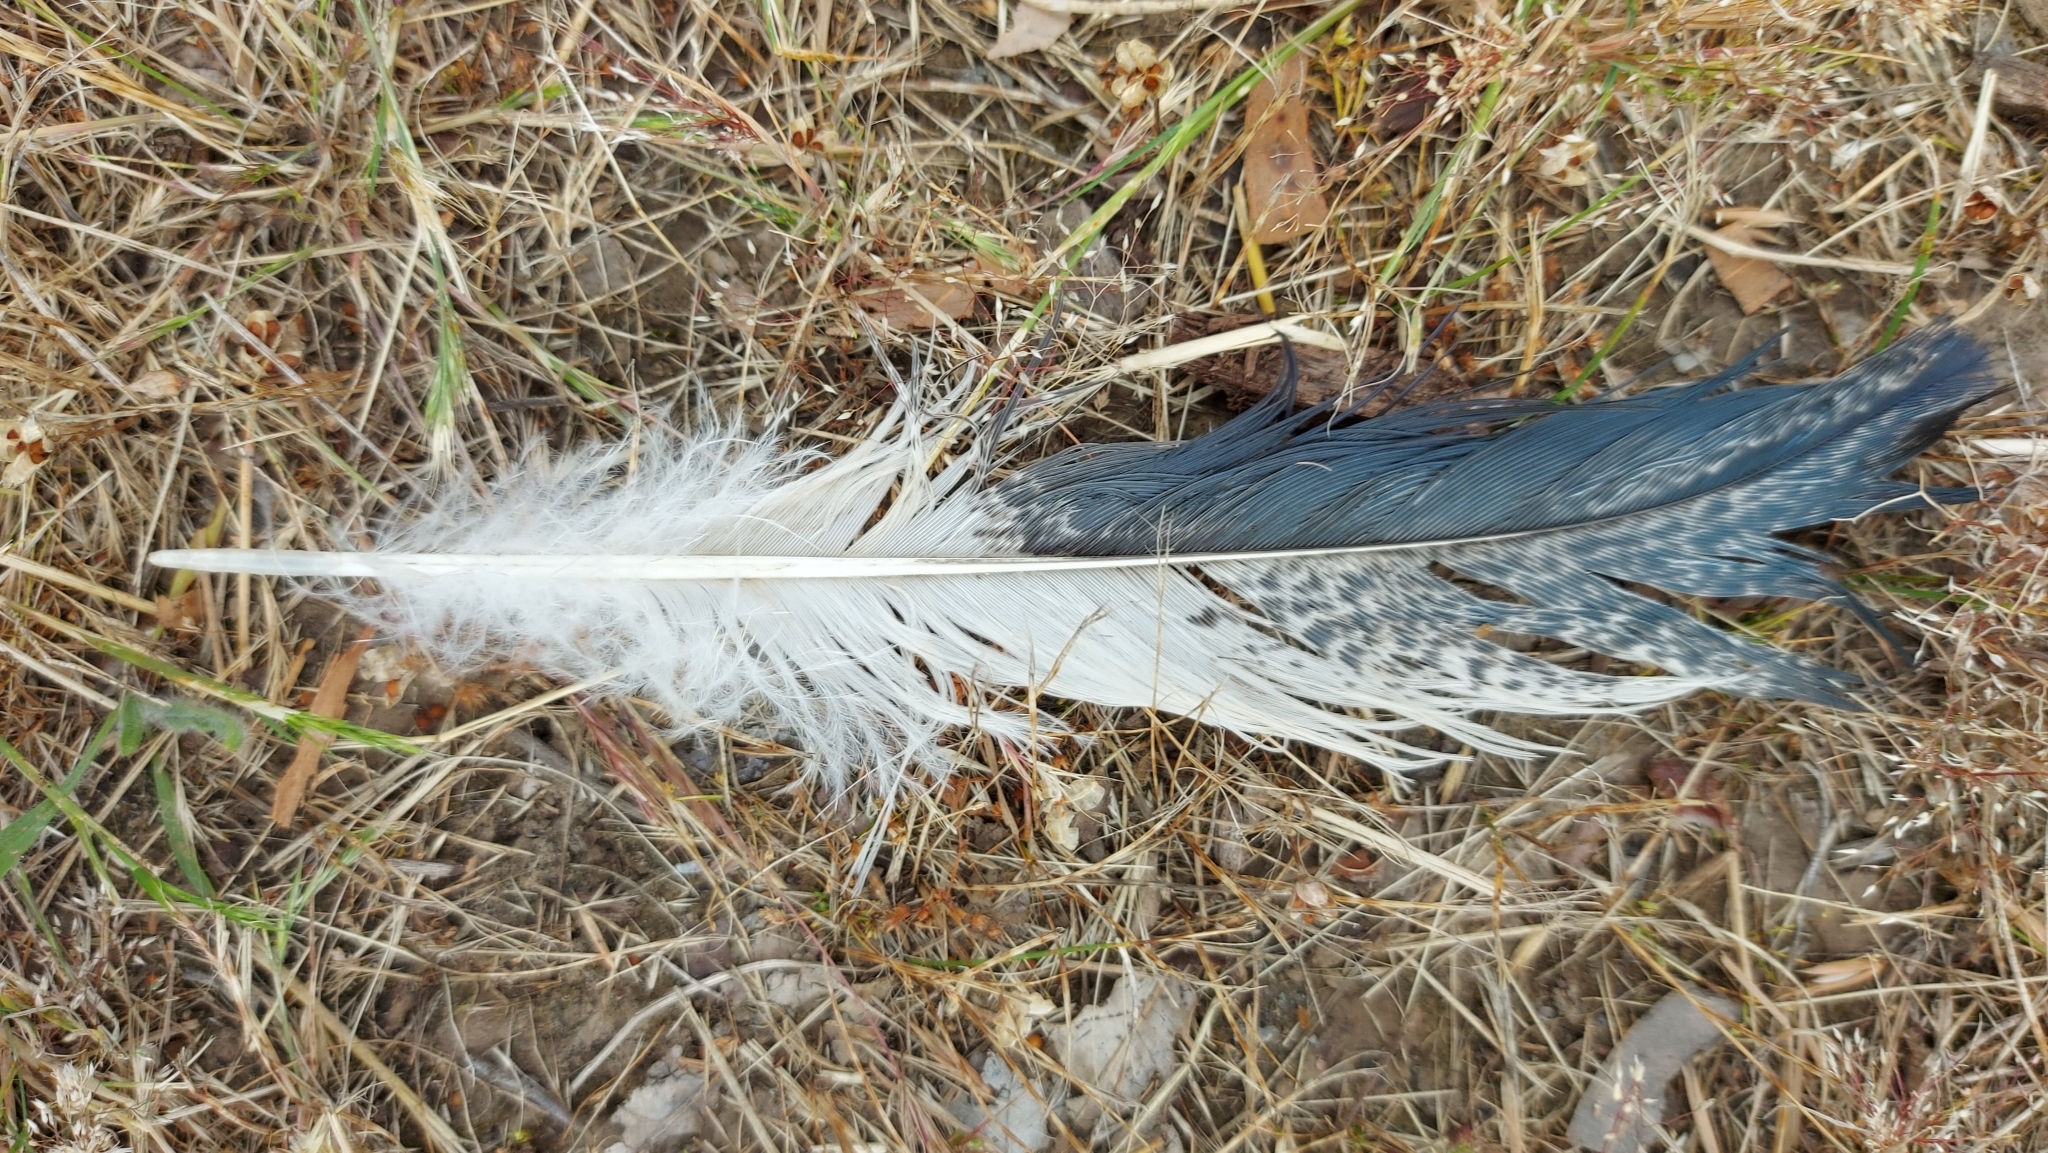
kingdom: Animalia
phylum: Chordata
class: Aves
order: Pelecaniformes
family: Threskiornithidae
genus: Threskiornis
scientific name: Threskiornis molucca
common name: Australian white ibis
